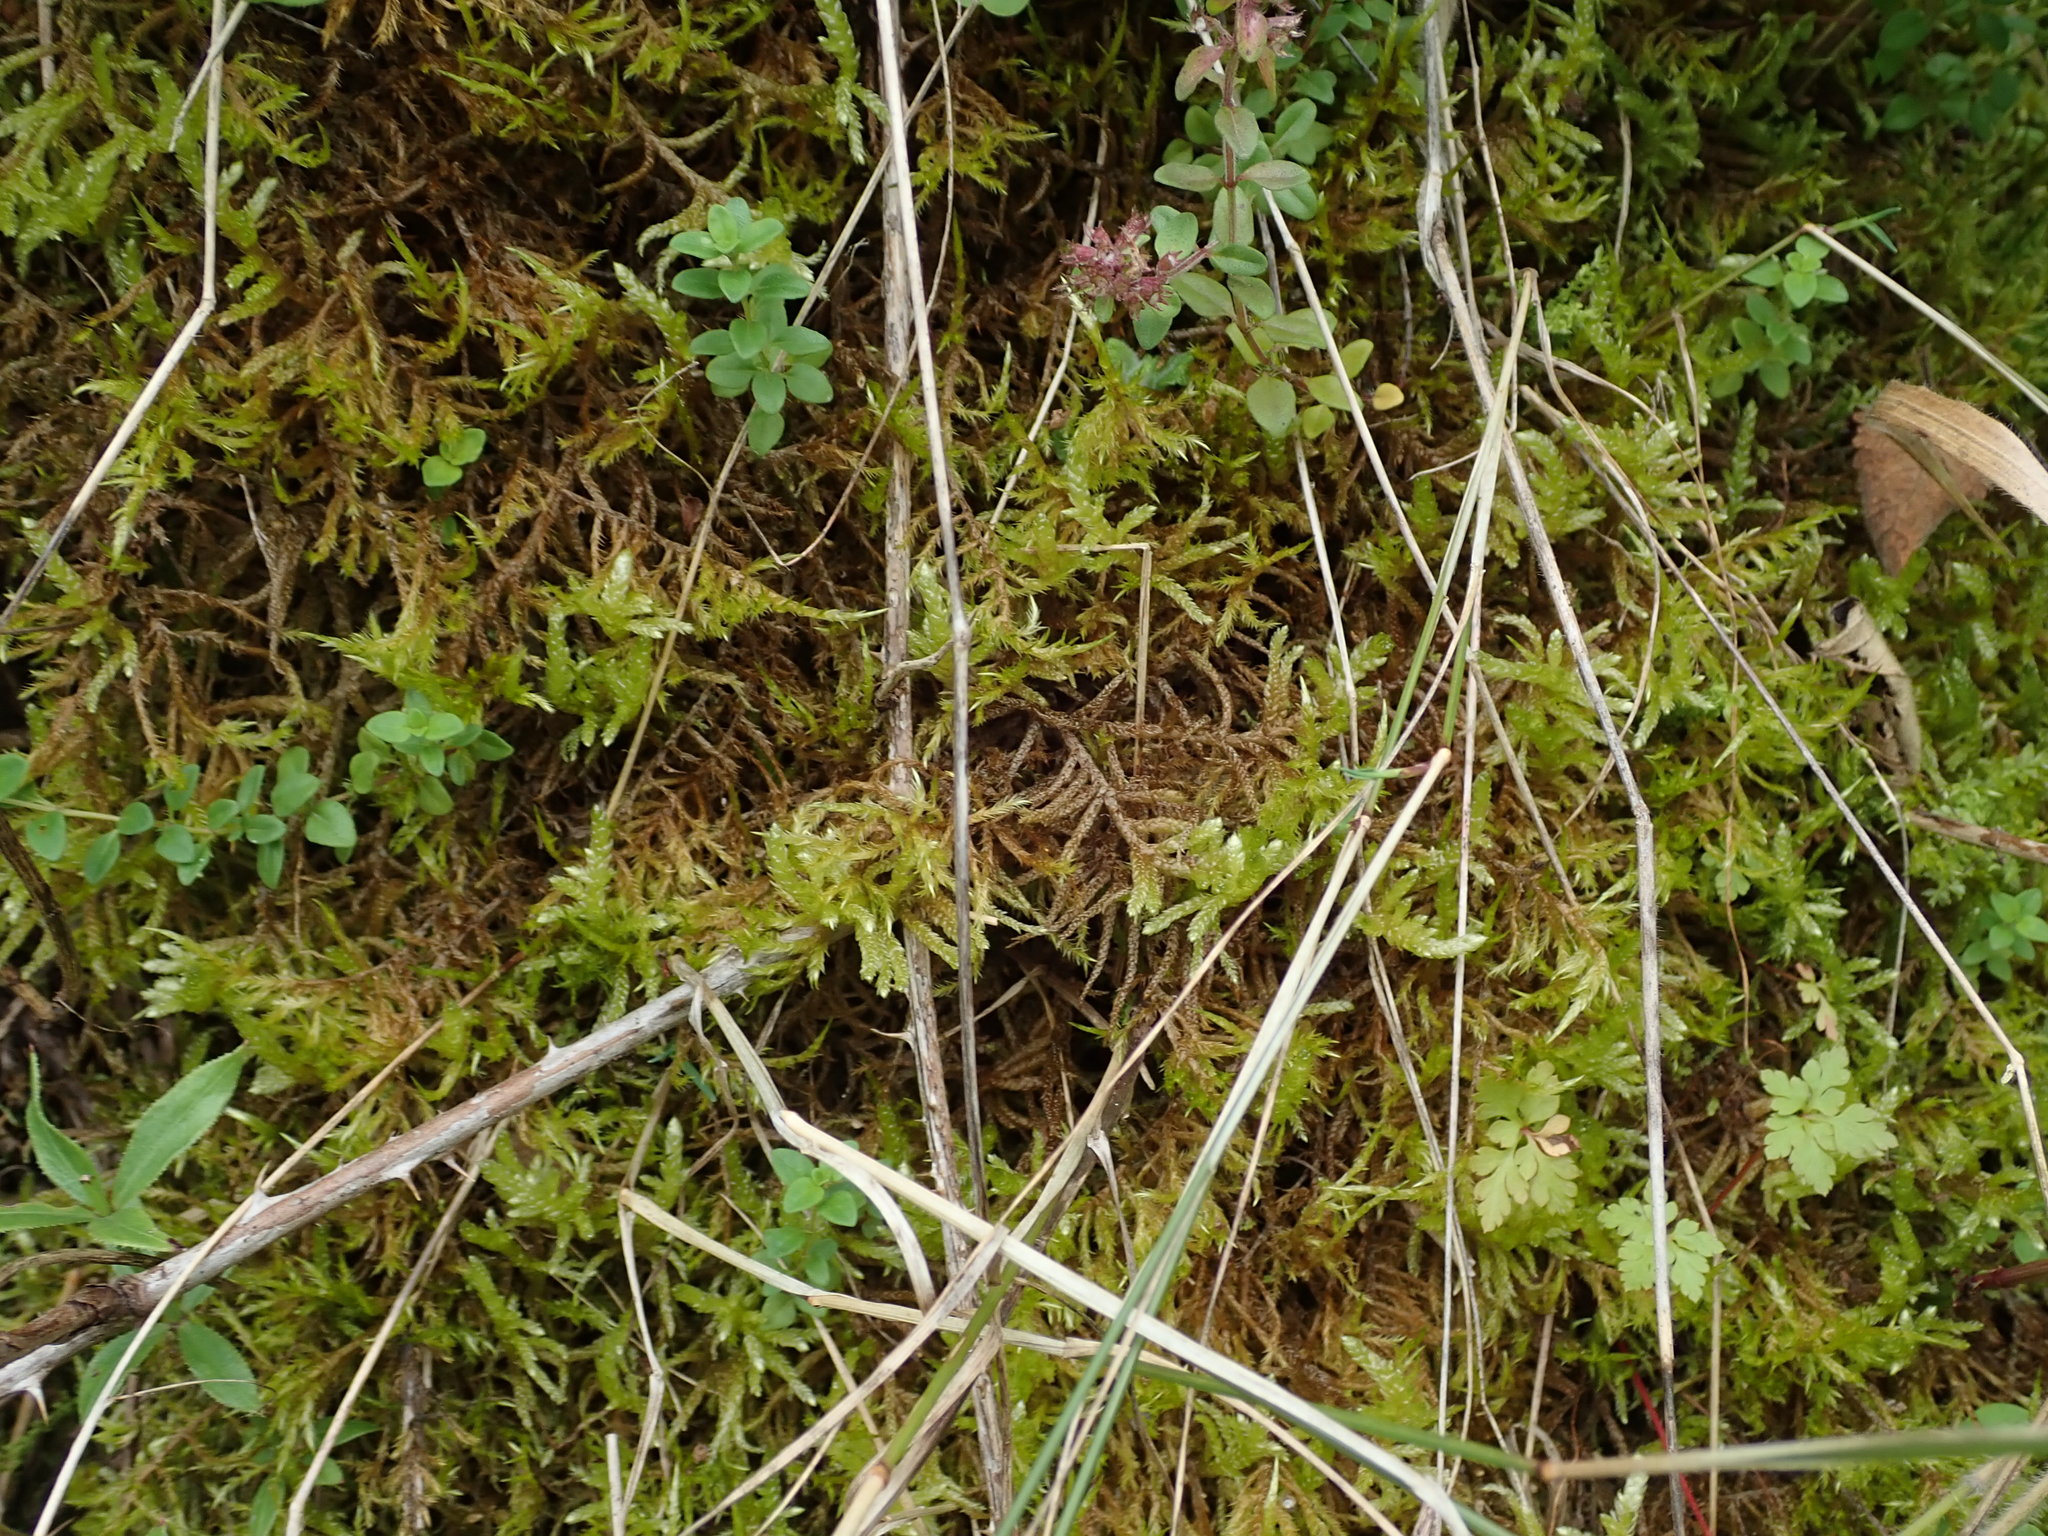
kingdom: Plantae
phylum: Bryophyta
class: Bryopsida
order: Hypnales
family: Brachytheciaceae
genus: Pseudoscleropodium
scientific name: Pseudoscleropodium purum
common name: Neat feather-moss
